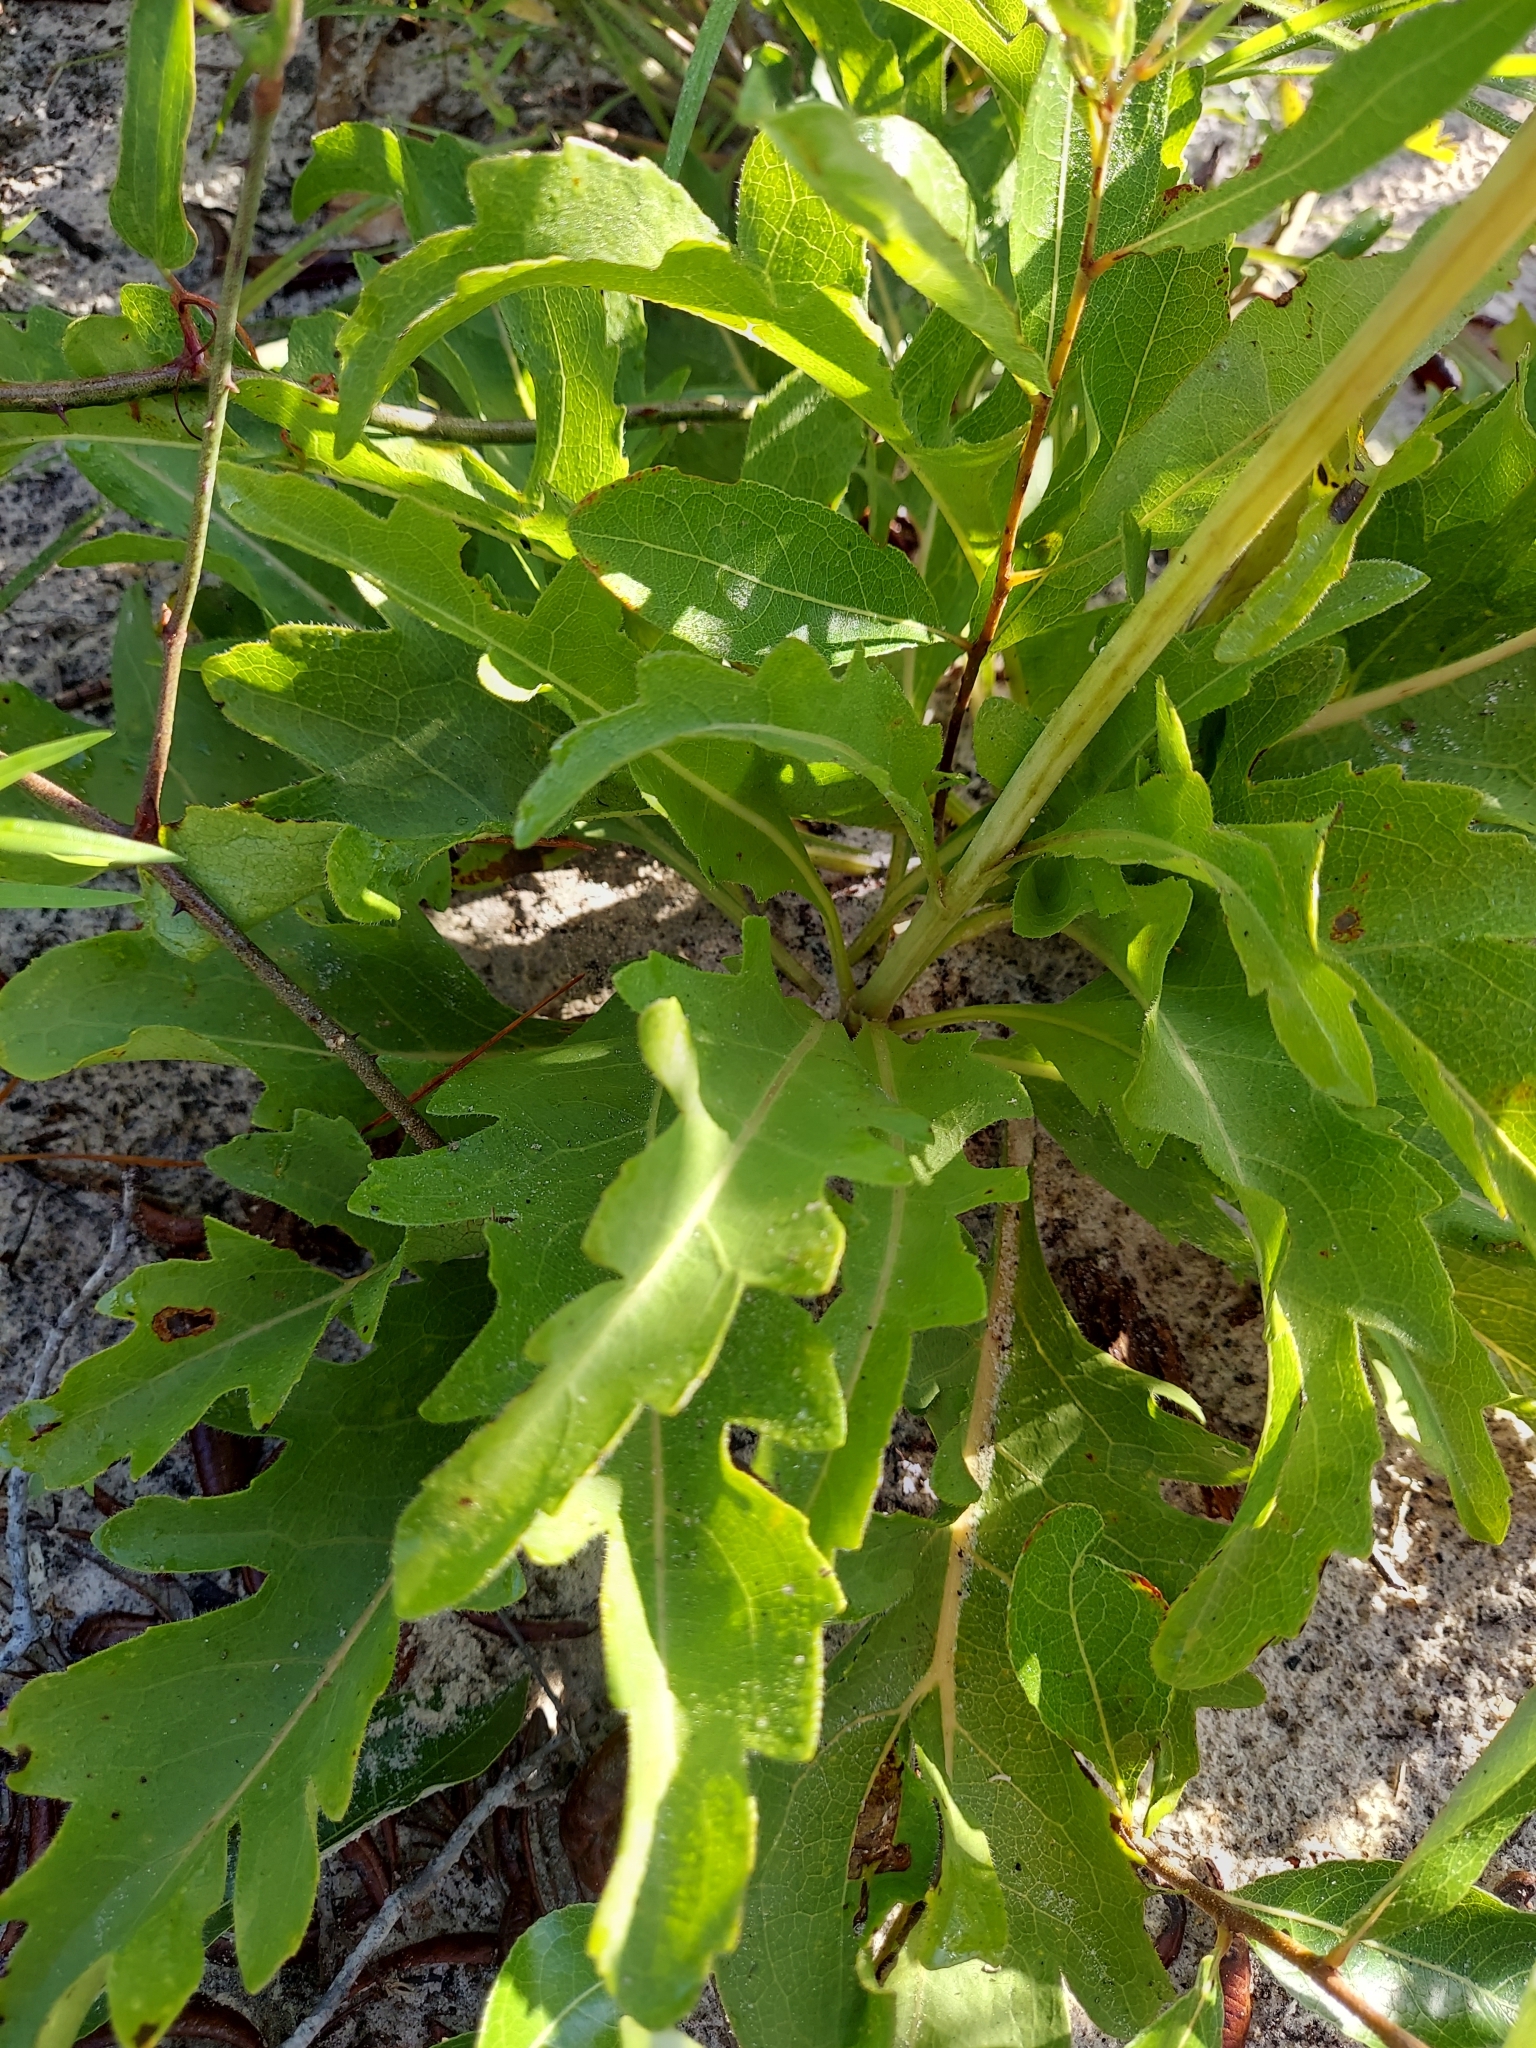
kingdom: Plantae
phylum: Tracheophyta
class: Magnoliopsida
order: Asterales
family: Asteraceae
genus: Silphium
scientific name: Silphium compositum
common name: Lesser basal-leaf rosinweed
